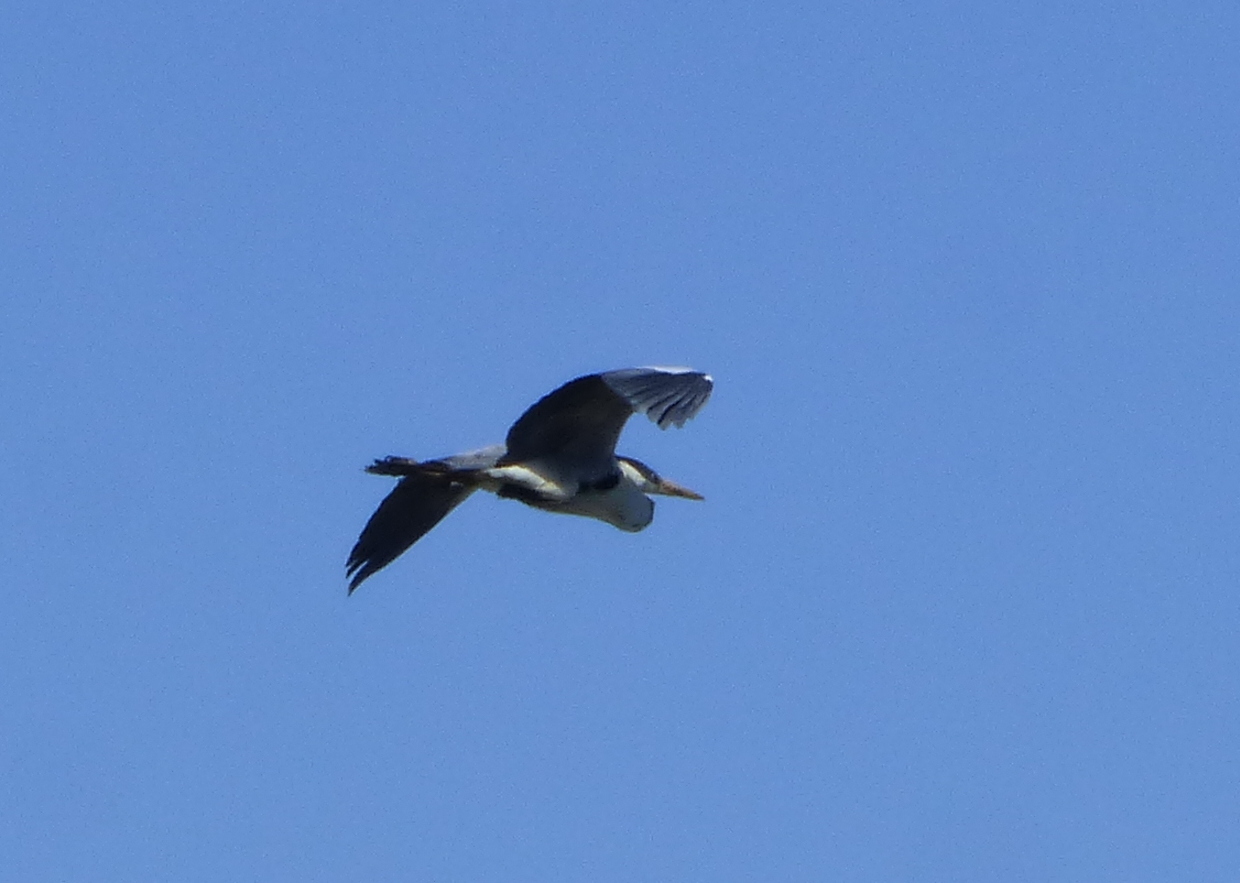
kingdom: Animalia
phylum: Chordata
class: Aves
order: Pelecaniformes
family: Ardeidae
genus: Ardea
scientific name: Ardea cocoi
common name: Cocoi heron
